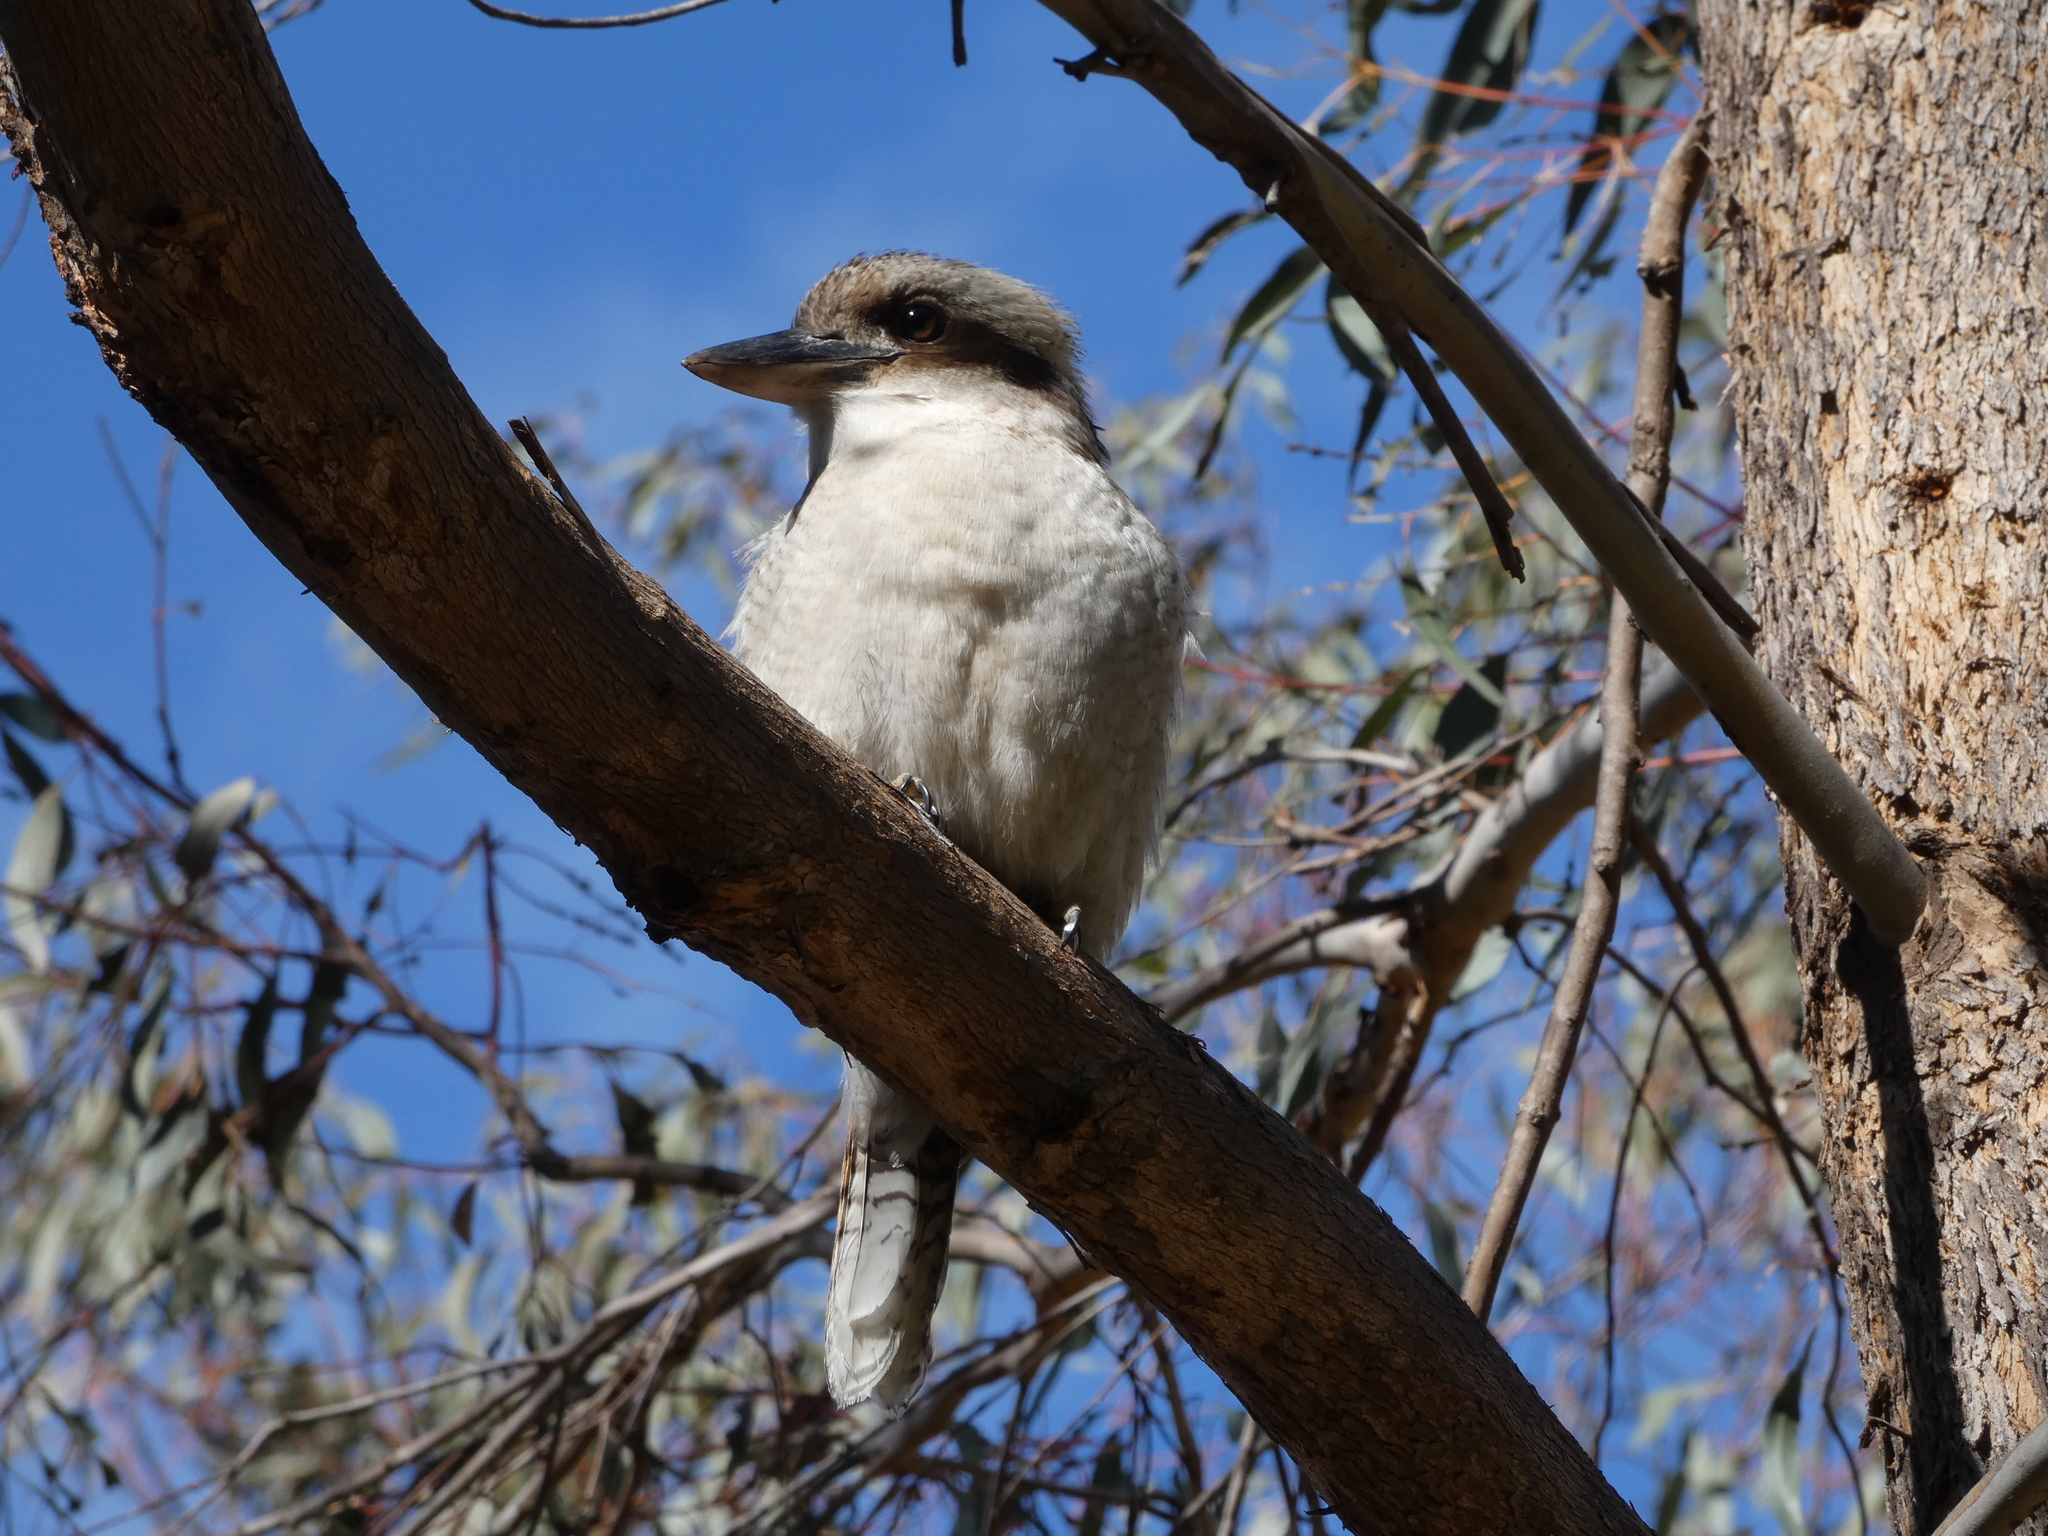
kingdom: Animalia
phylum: Chordata
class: Aves
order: Coraciiformes
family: Alcedinidae
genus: Dacelo
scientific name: Dacelo novaeguineae
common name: Laughing kookaburra
